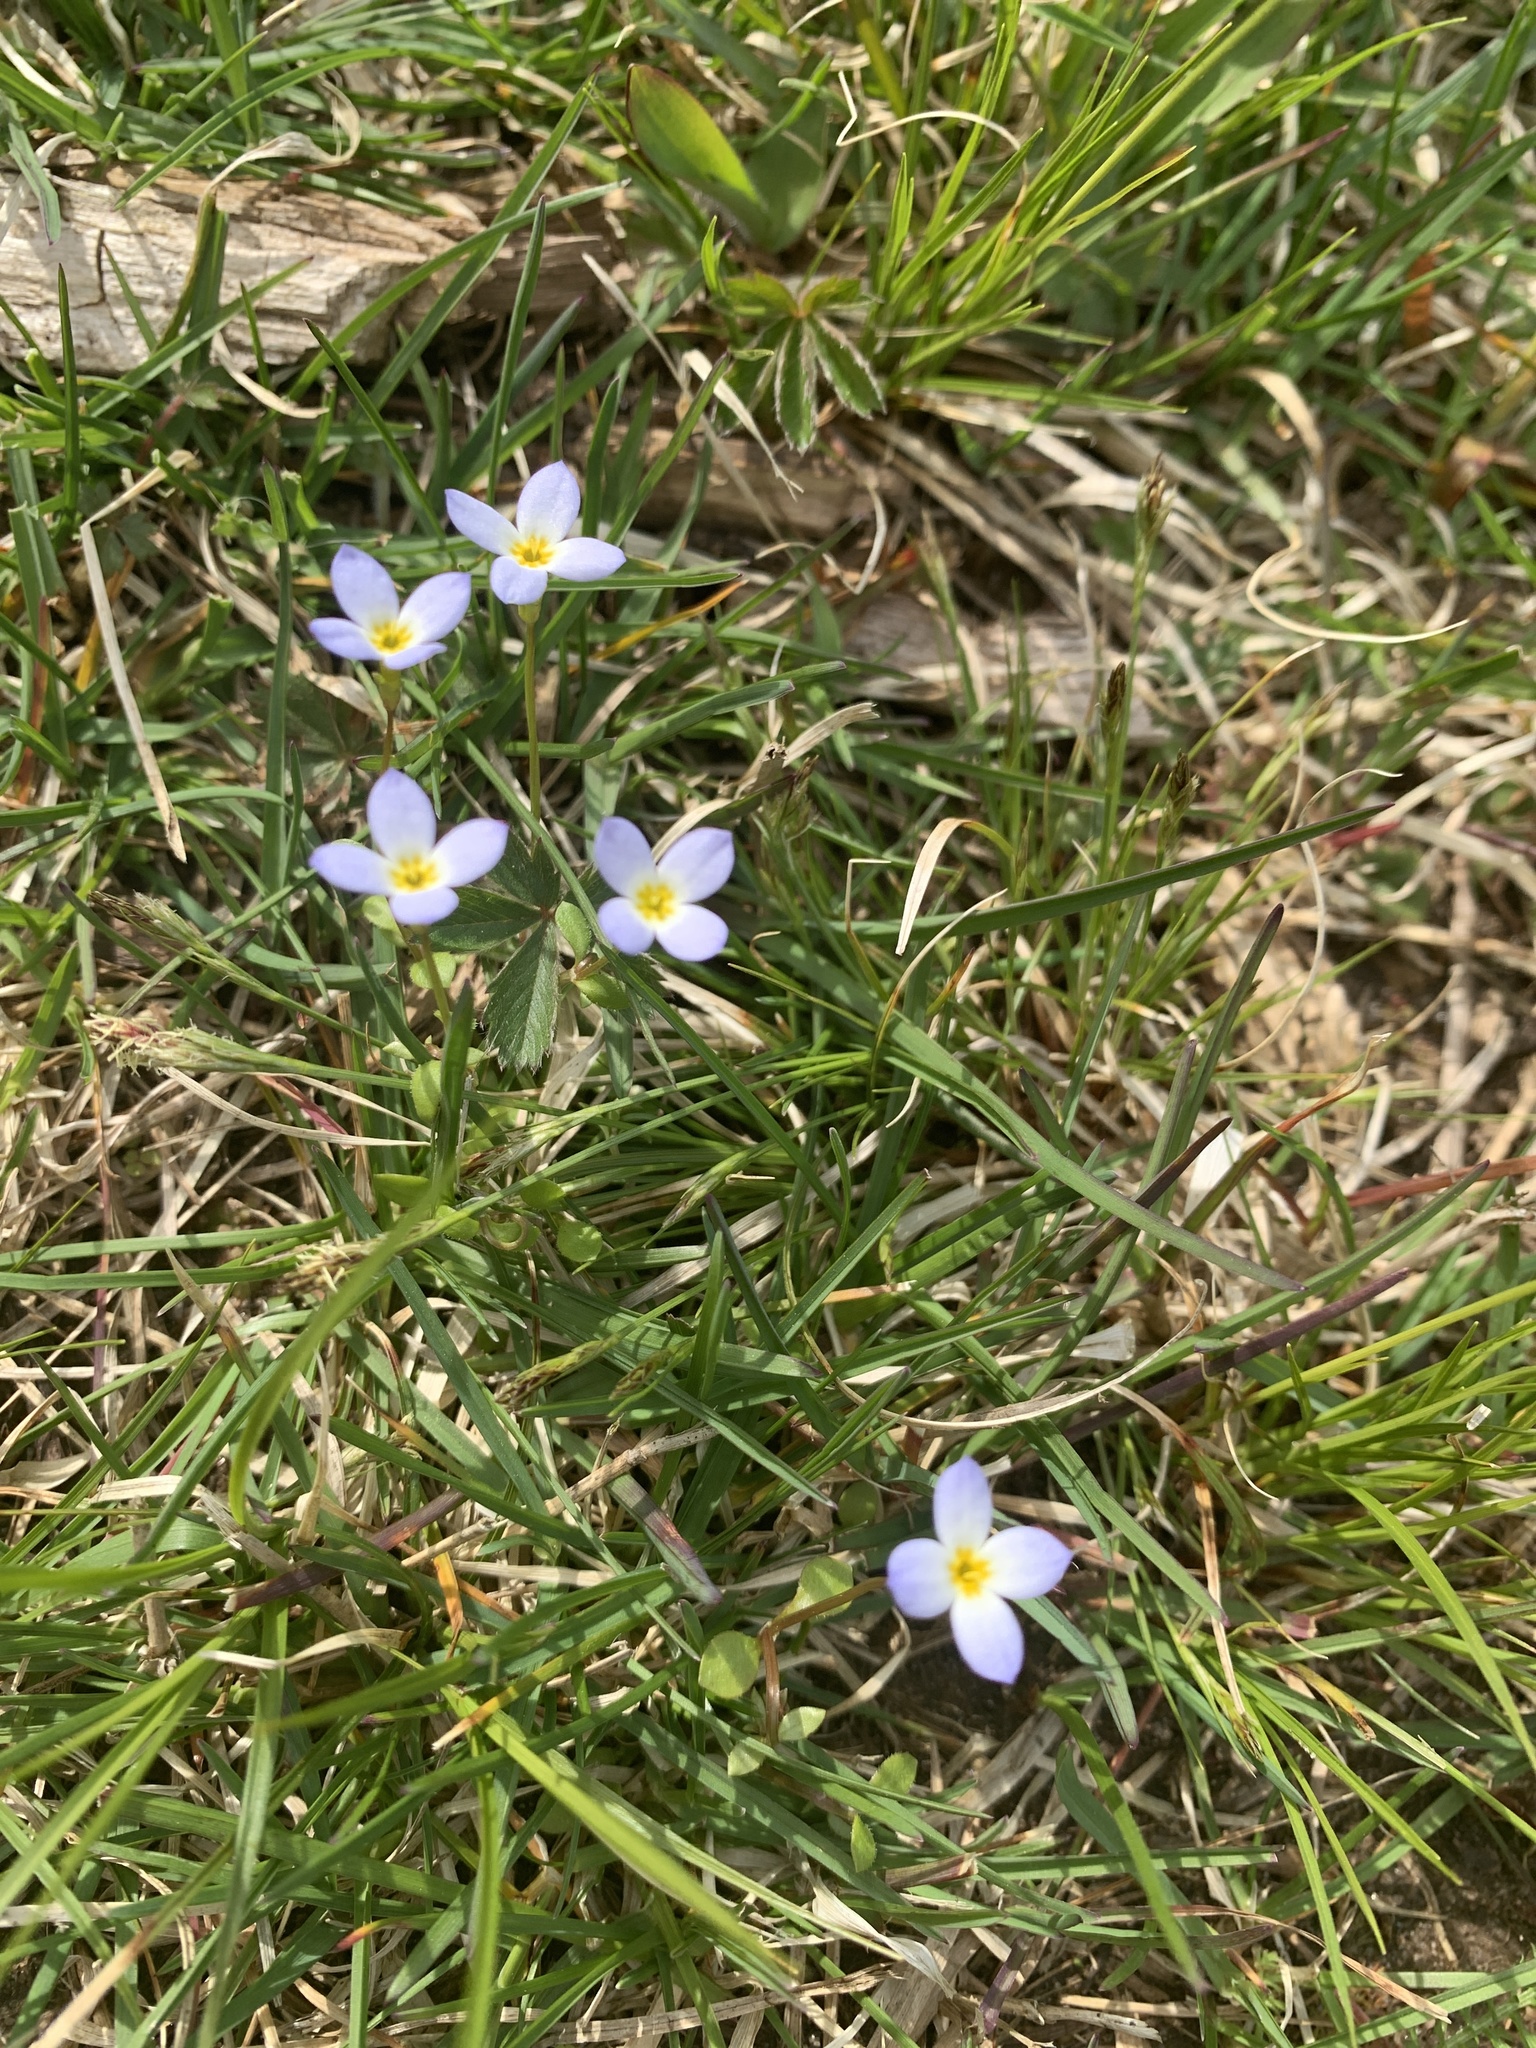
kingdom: Plantae
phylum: Tracheophyta
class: Magnoliopsida
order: Gentianales
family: Rubiaceae
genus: Houstonia
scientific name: Houstonia caerulea
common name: Bluets
